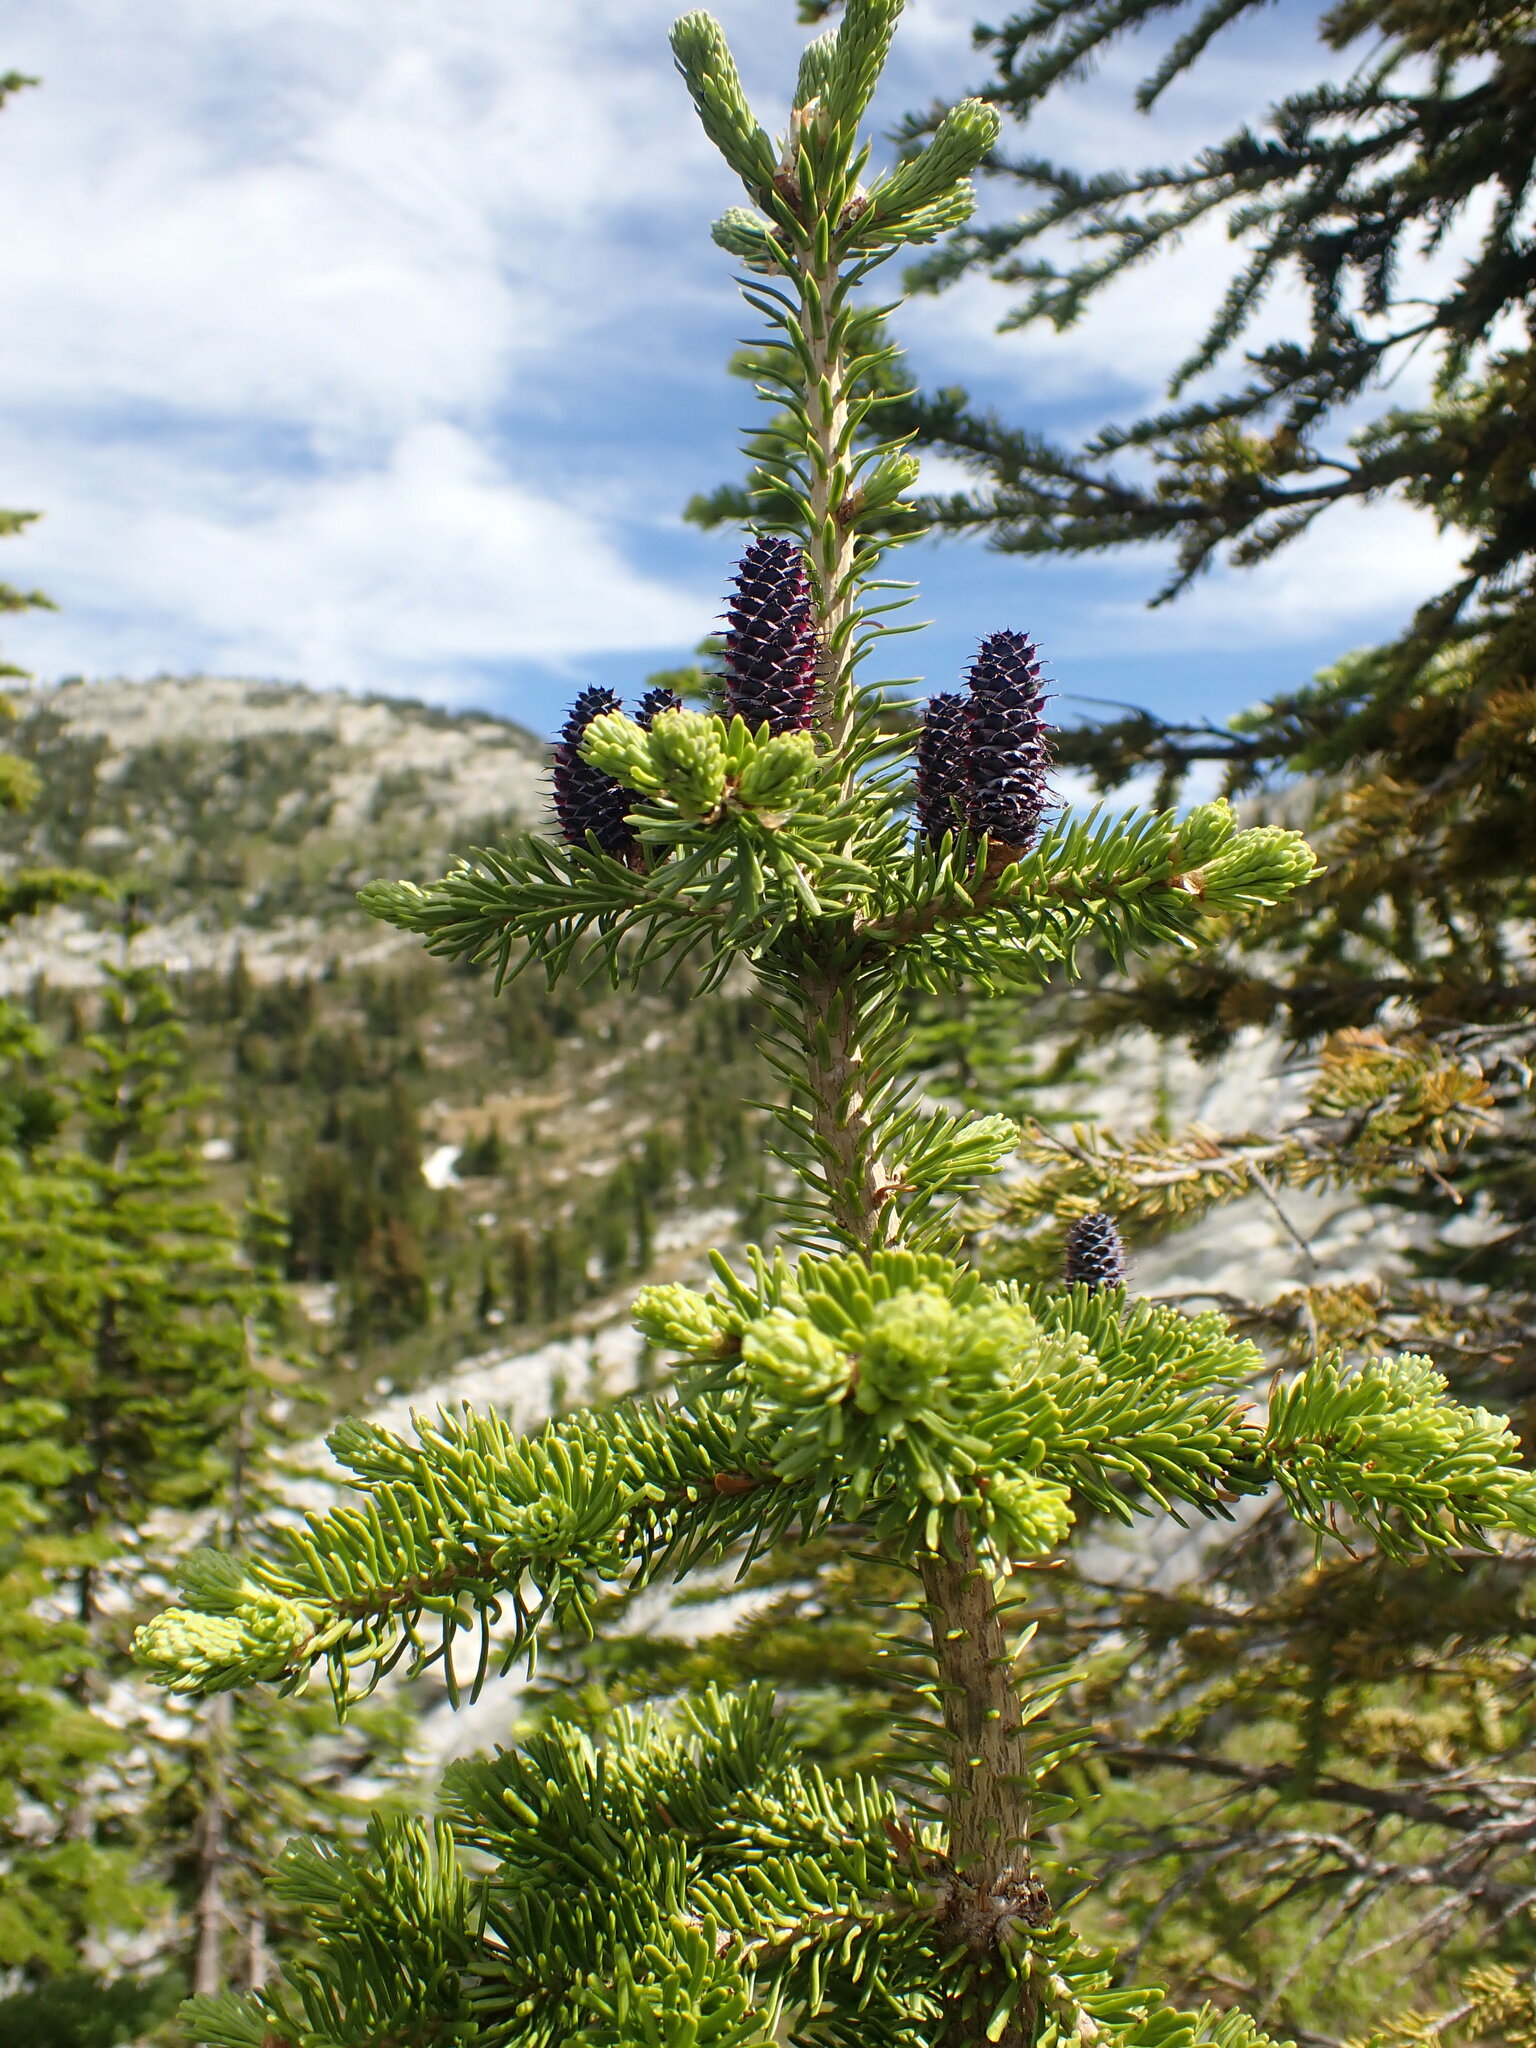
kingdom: Plantae
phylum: Tracheophyta
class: Pinopsida
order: Pinales
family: Pinaceae
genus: Abies
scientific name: Abies lasiocarpa
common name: Subalpine fir
